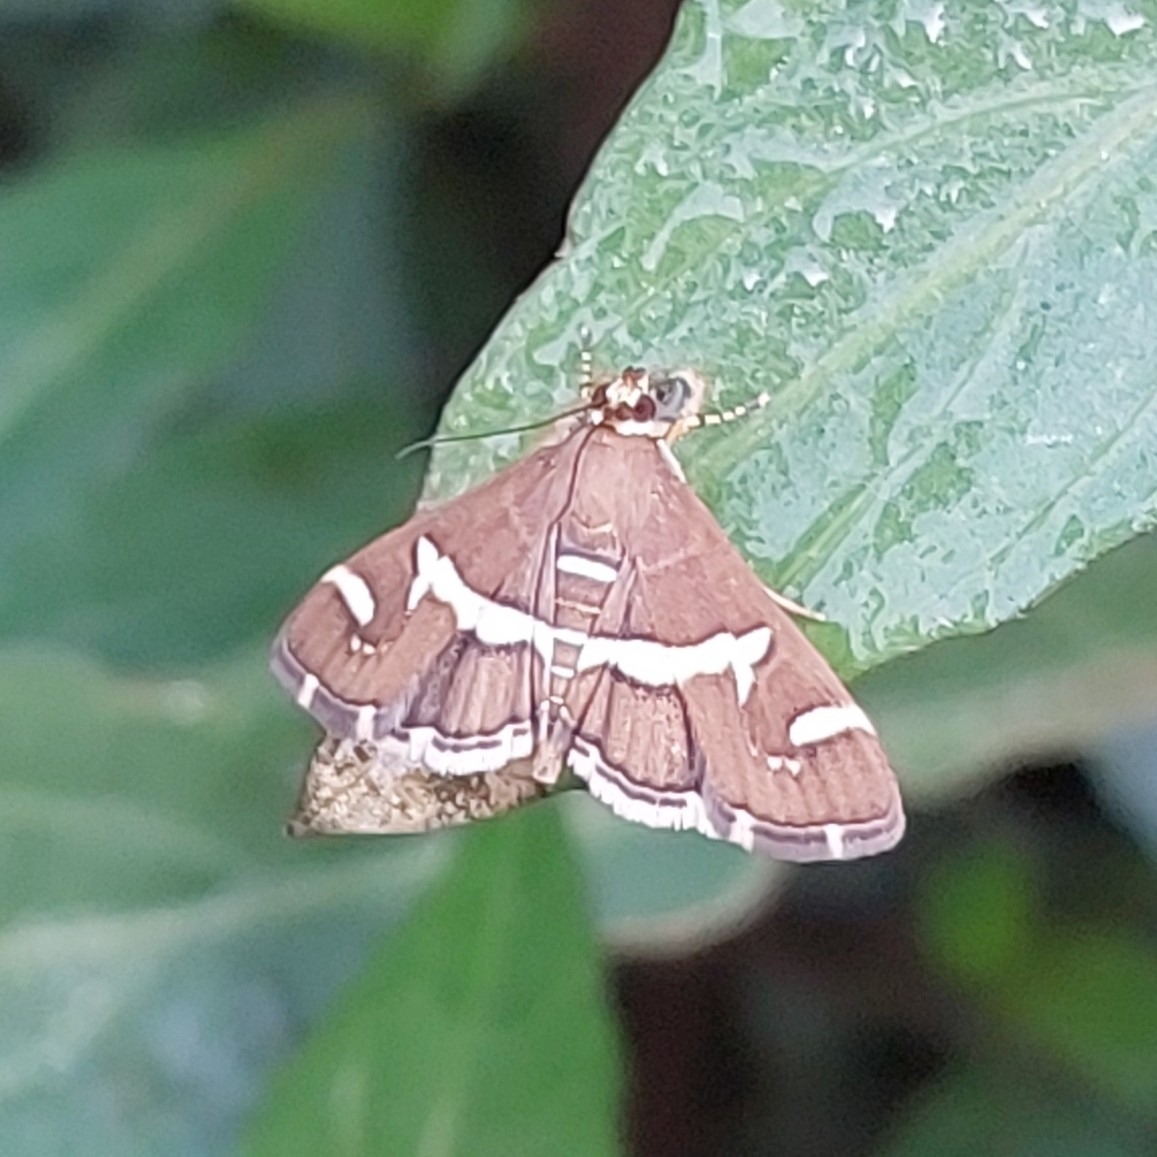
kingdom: Animalia
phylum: Arthropoda
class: Insecta
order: Lepidoptera
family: Crambidae
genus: Spoladea
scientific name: Spoladea recurvalis
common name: Beet webworm moth
